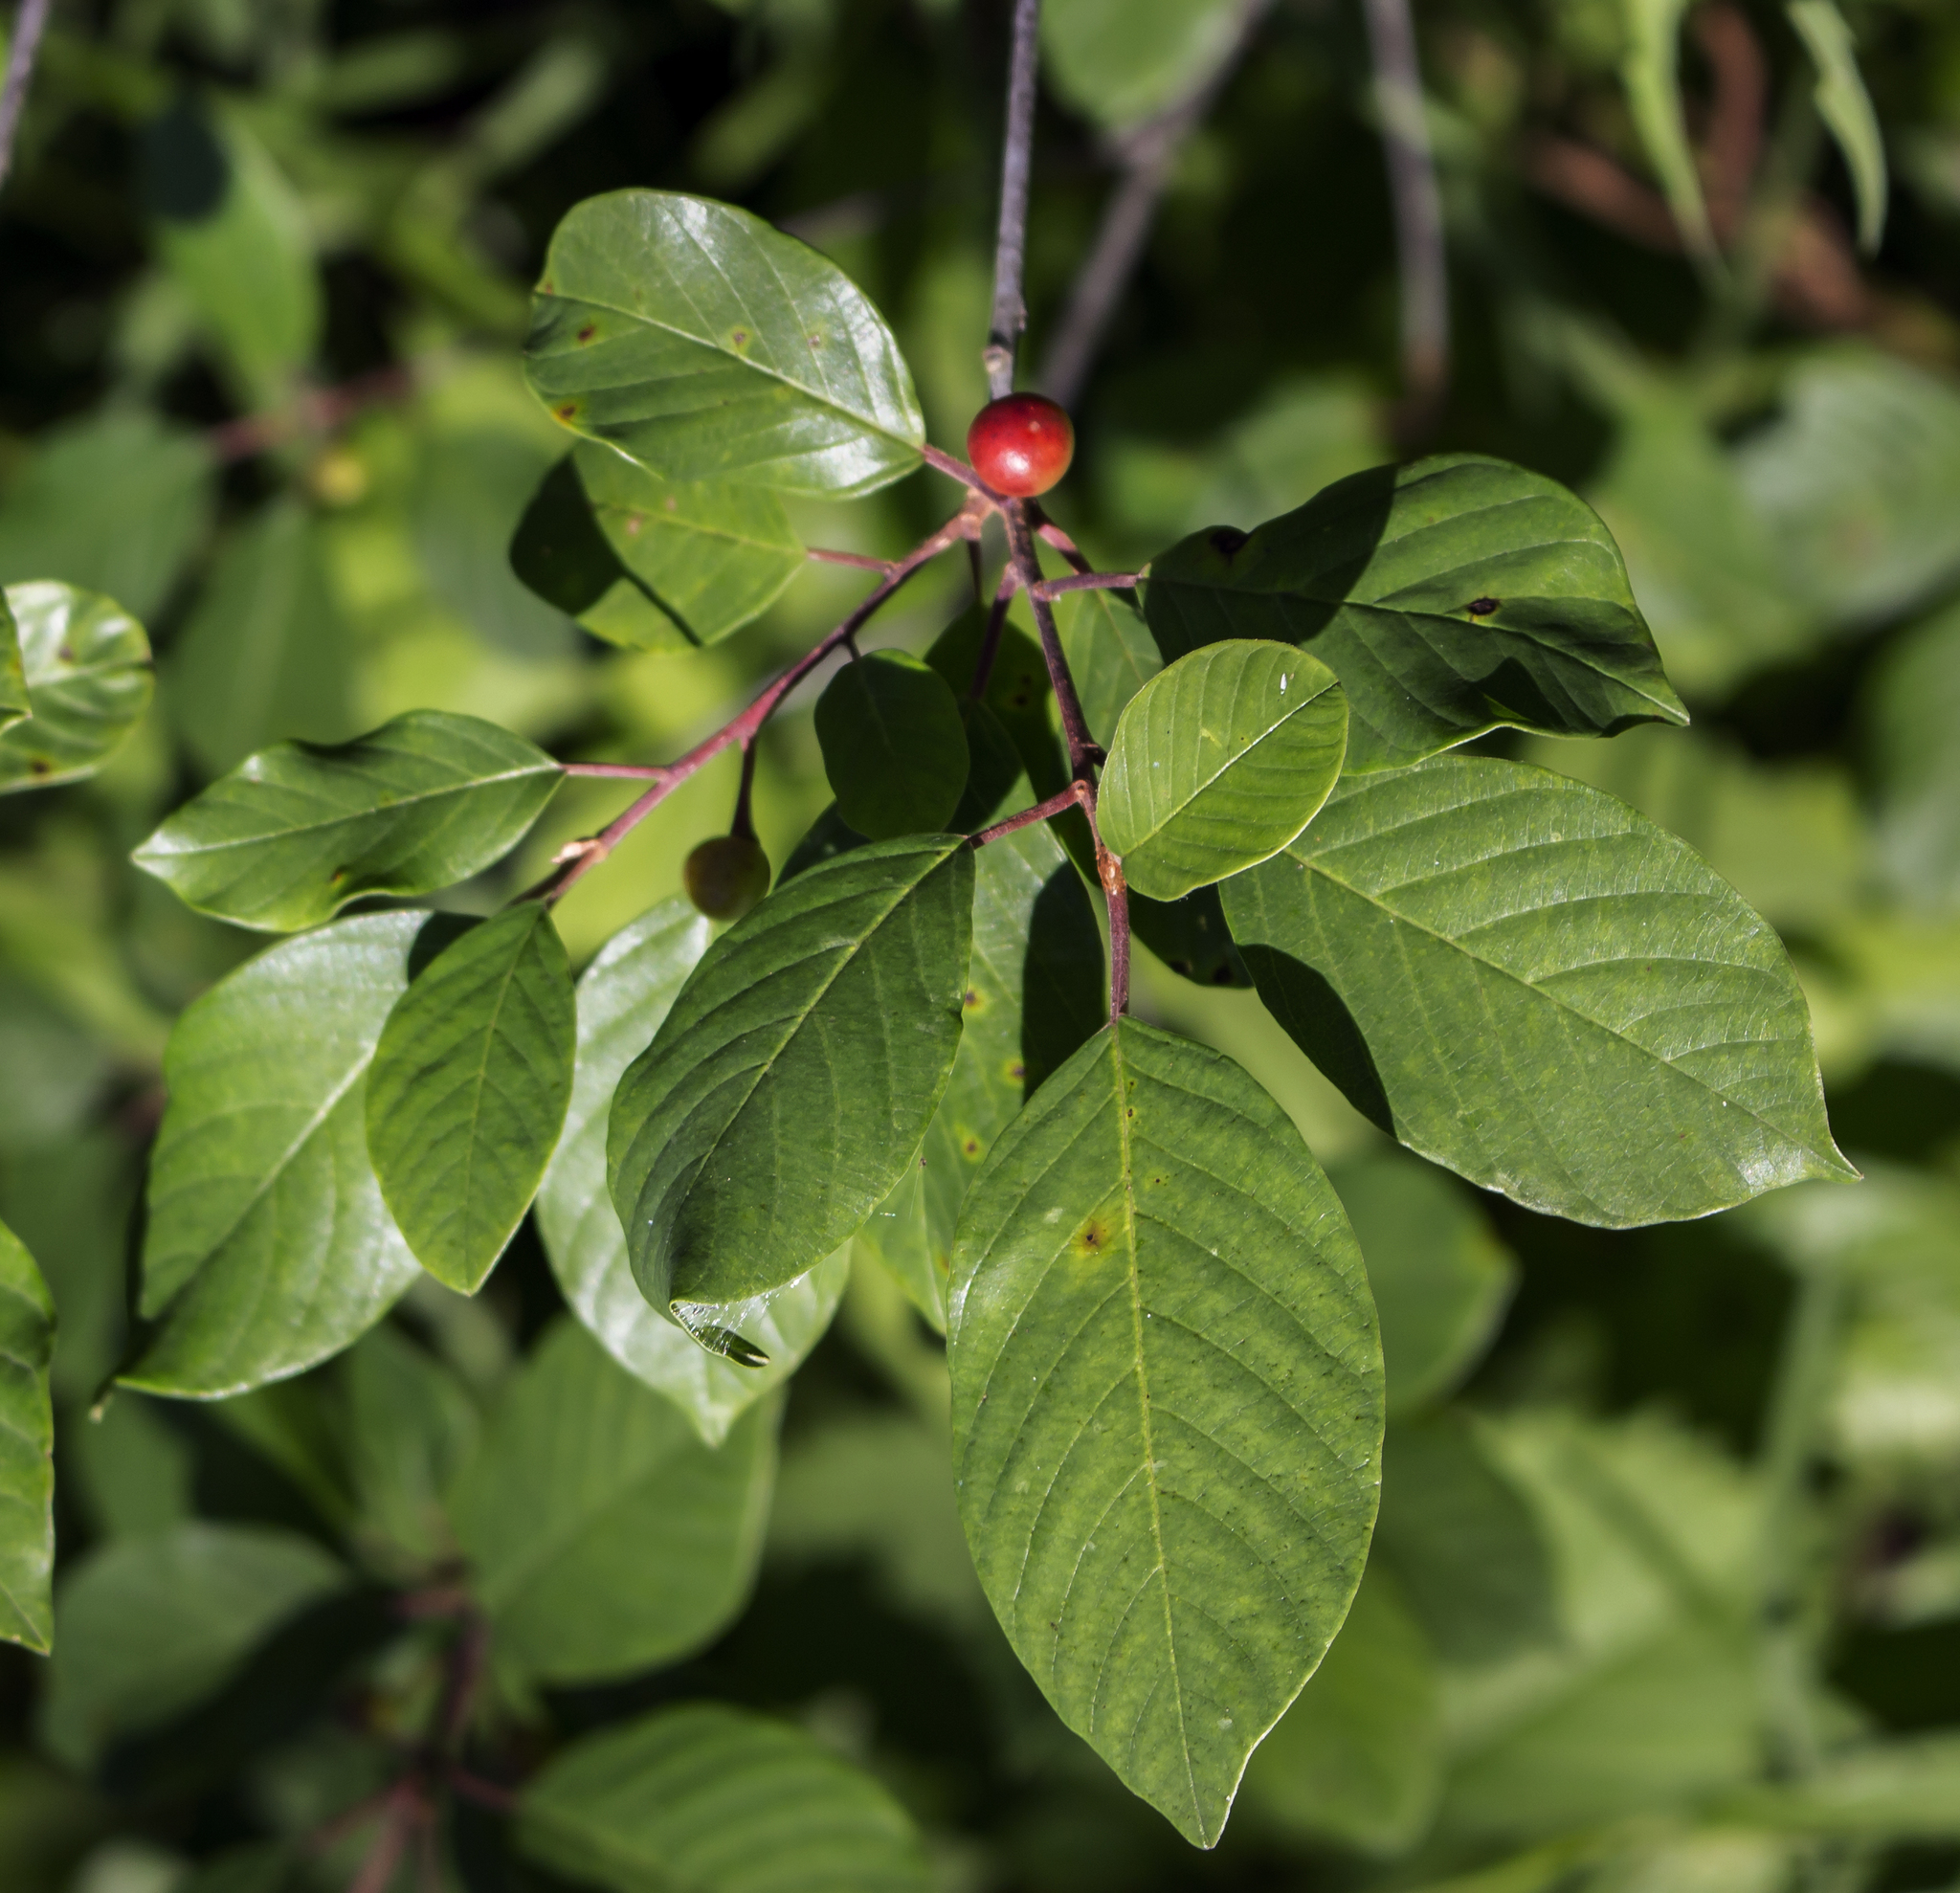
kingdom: Plantae
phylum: Tracheophyta
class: Magnoliopsida
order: Rosales
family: Rhamnaceae
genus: Frangula
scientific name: Frangula alnus
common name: Alder buckthorn
